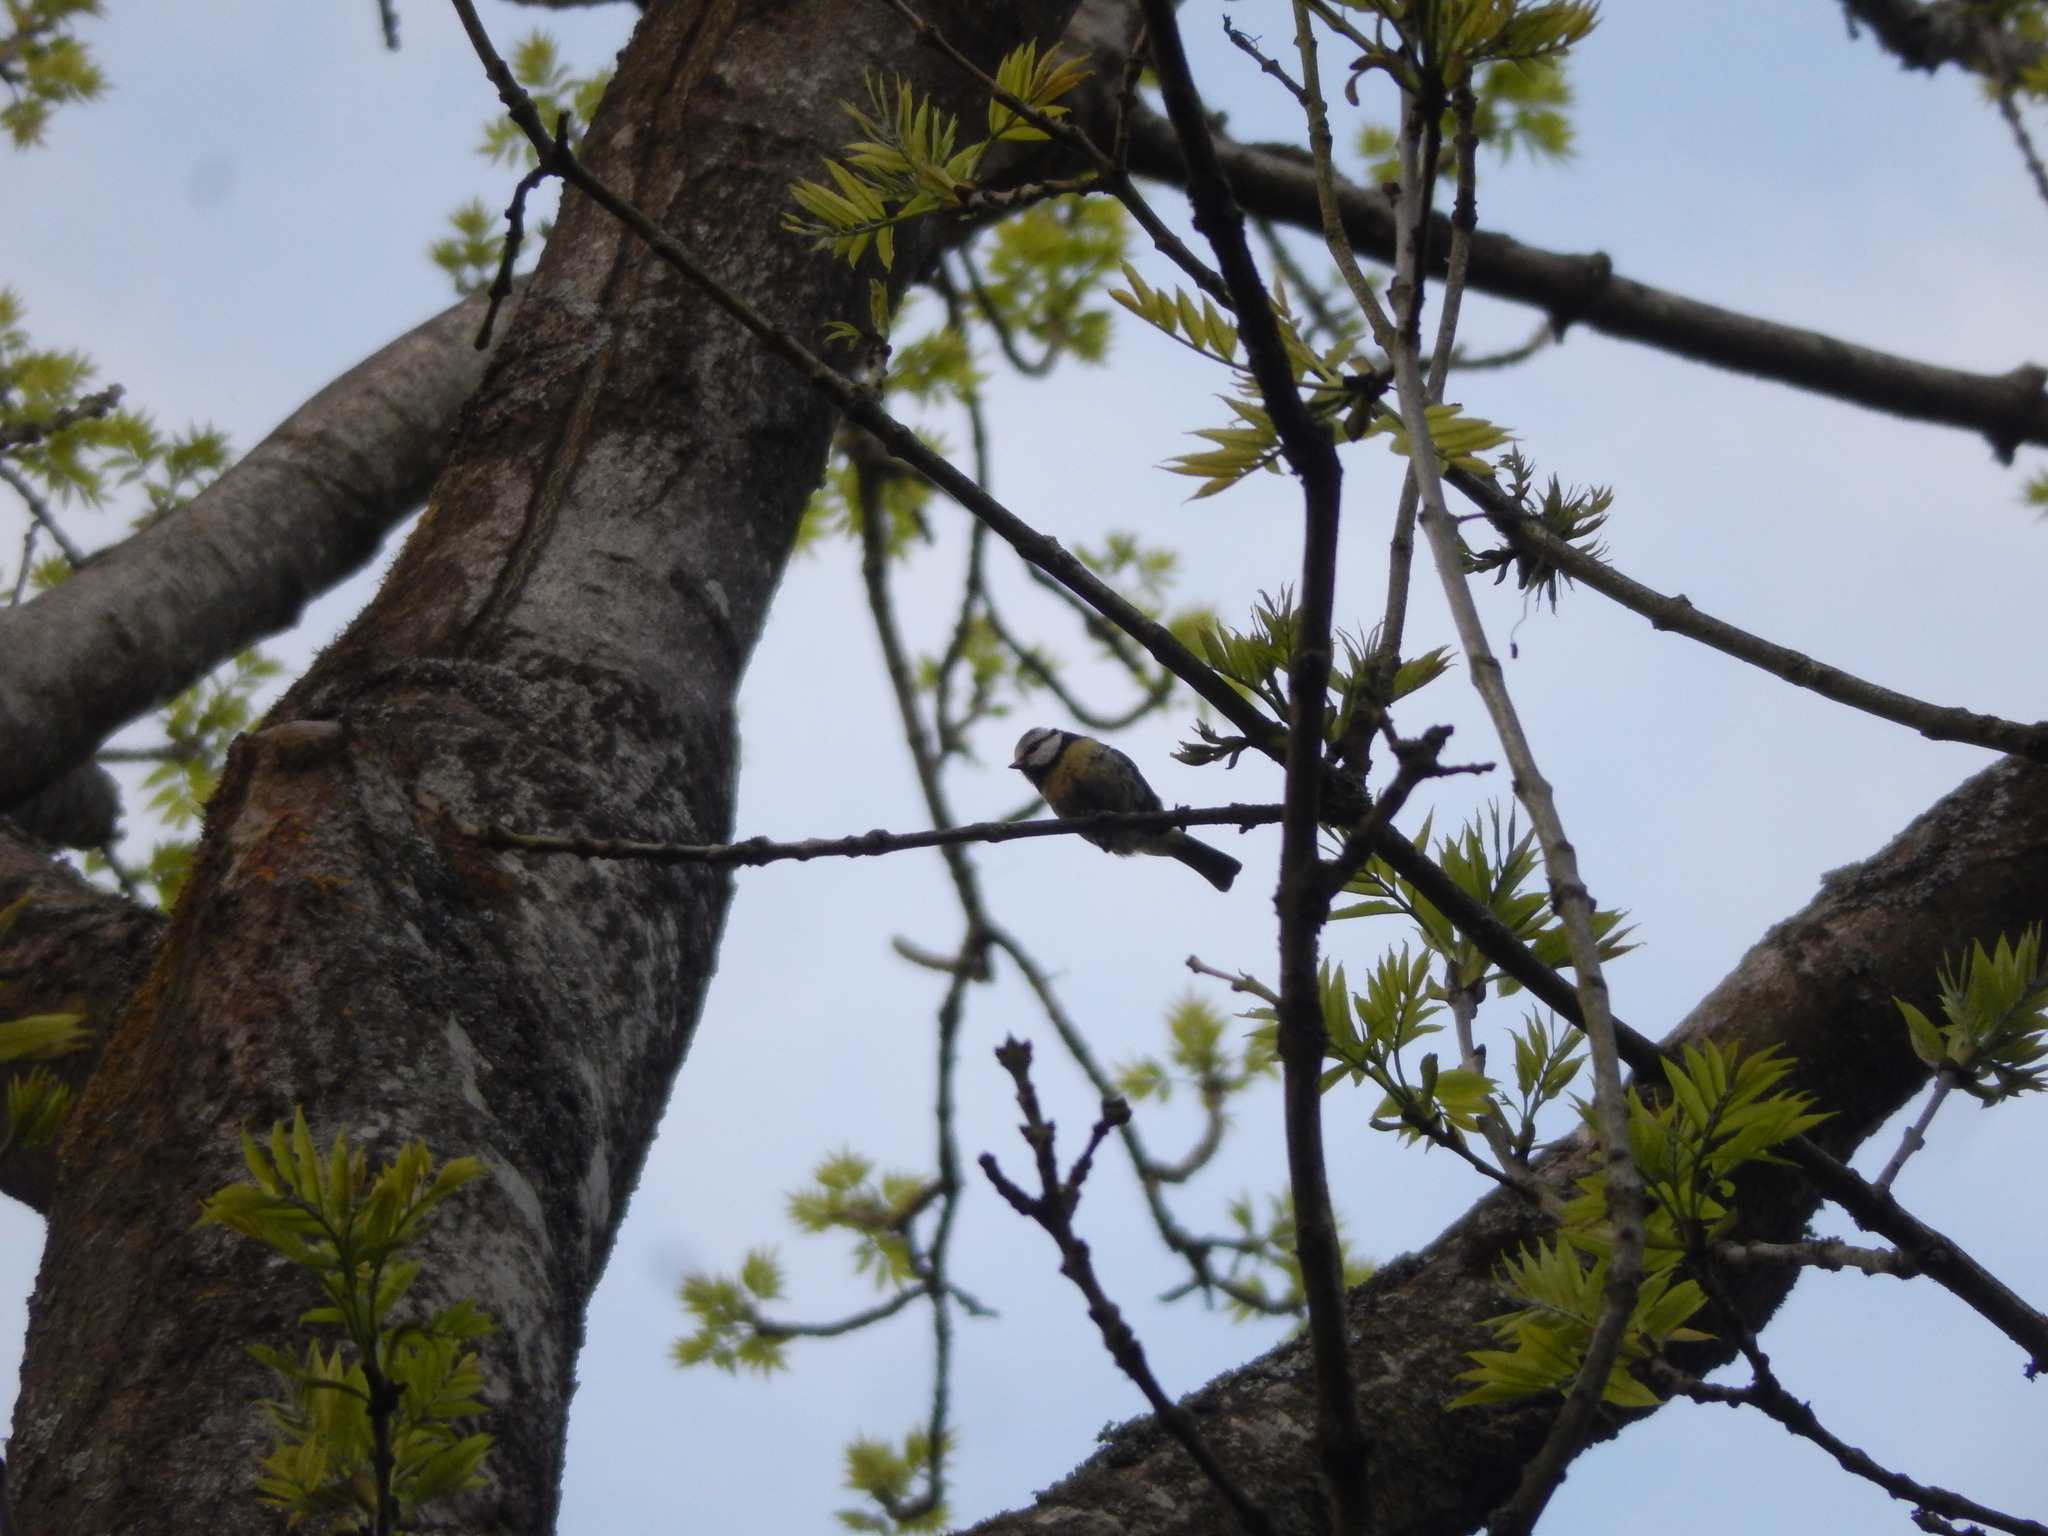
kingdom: Animalia
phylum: Chordata
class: Aves
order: Passeriformes
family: Paridae
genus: Cyanistes
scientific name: Cyanistes caeruleus
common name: Eurasian blue tit
